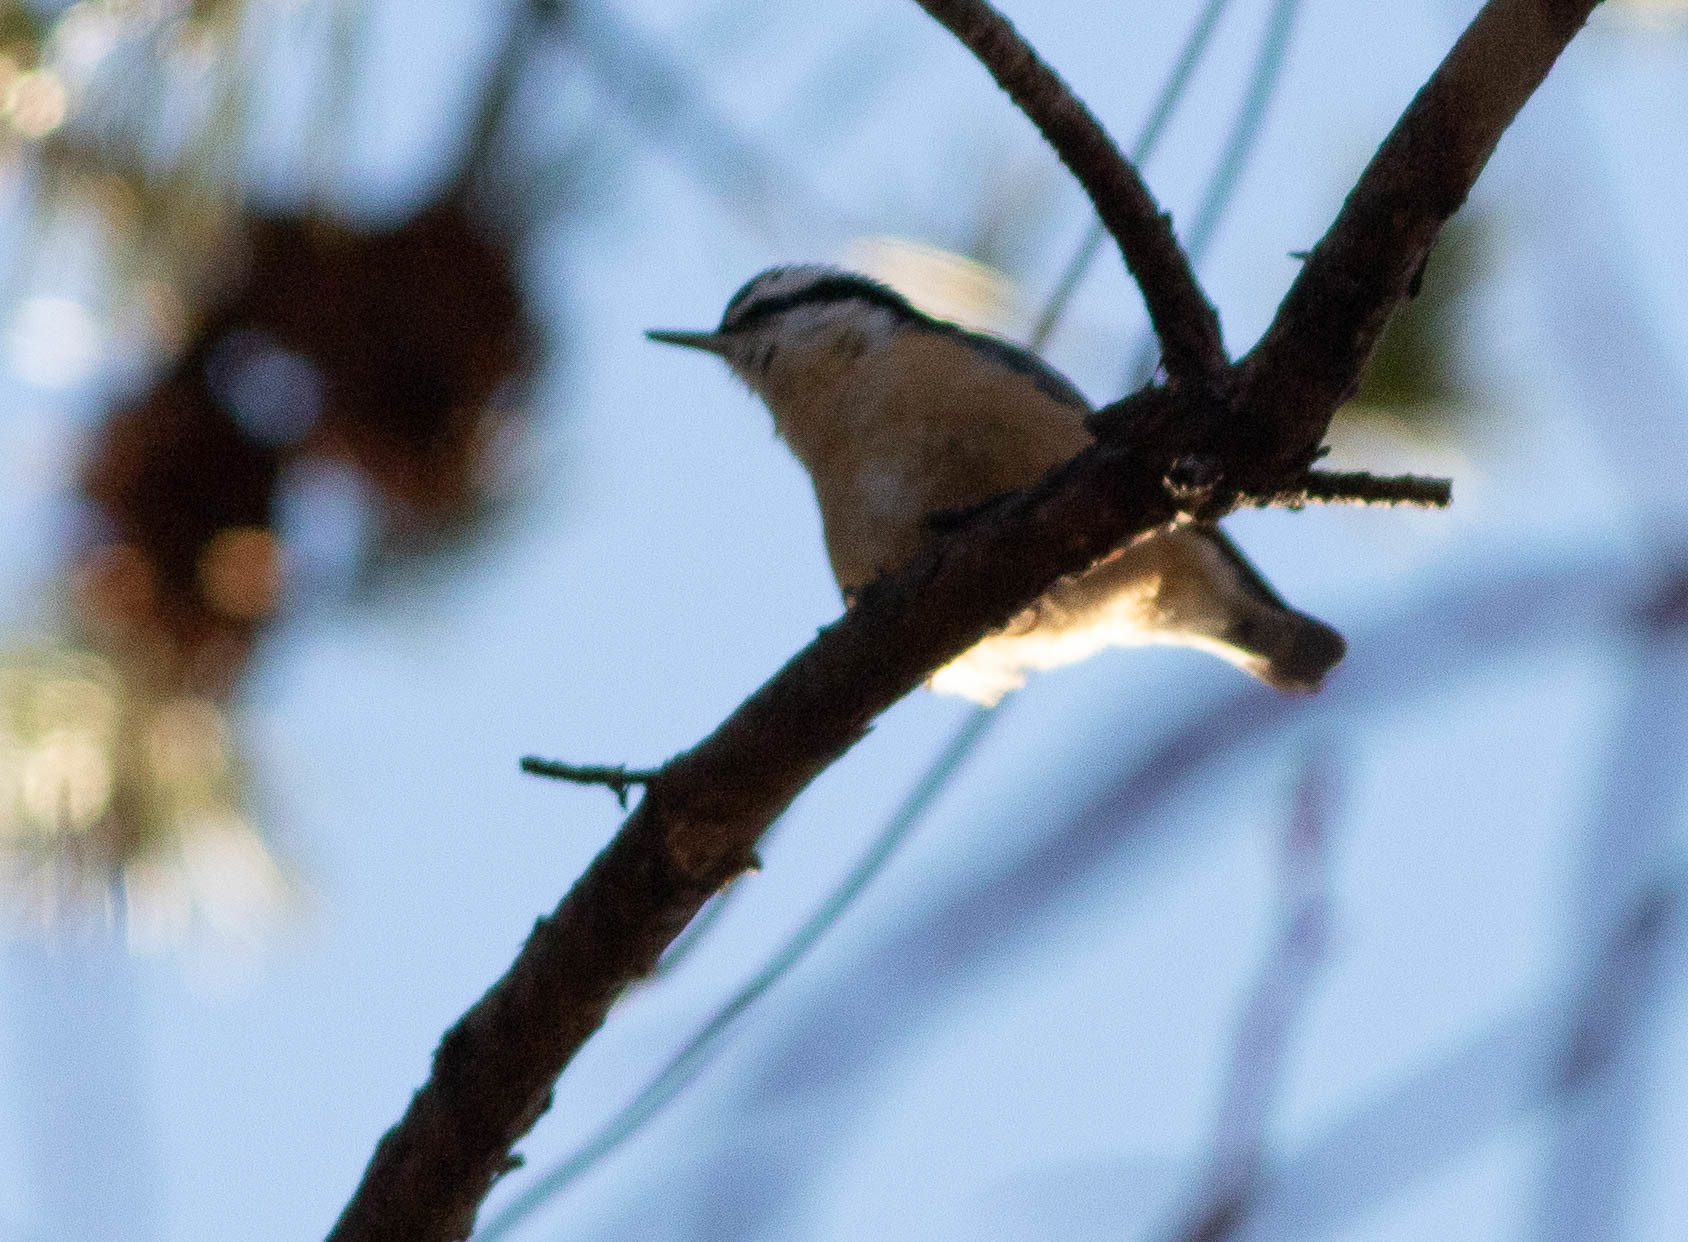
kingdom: Animalia
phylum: Chordata
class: Aves
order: Passeriformes
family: Sittidae
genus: Sitta
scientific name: Sitta canadensis
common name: Red-breasted nuthatch
